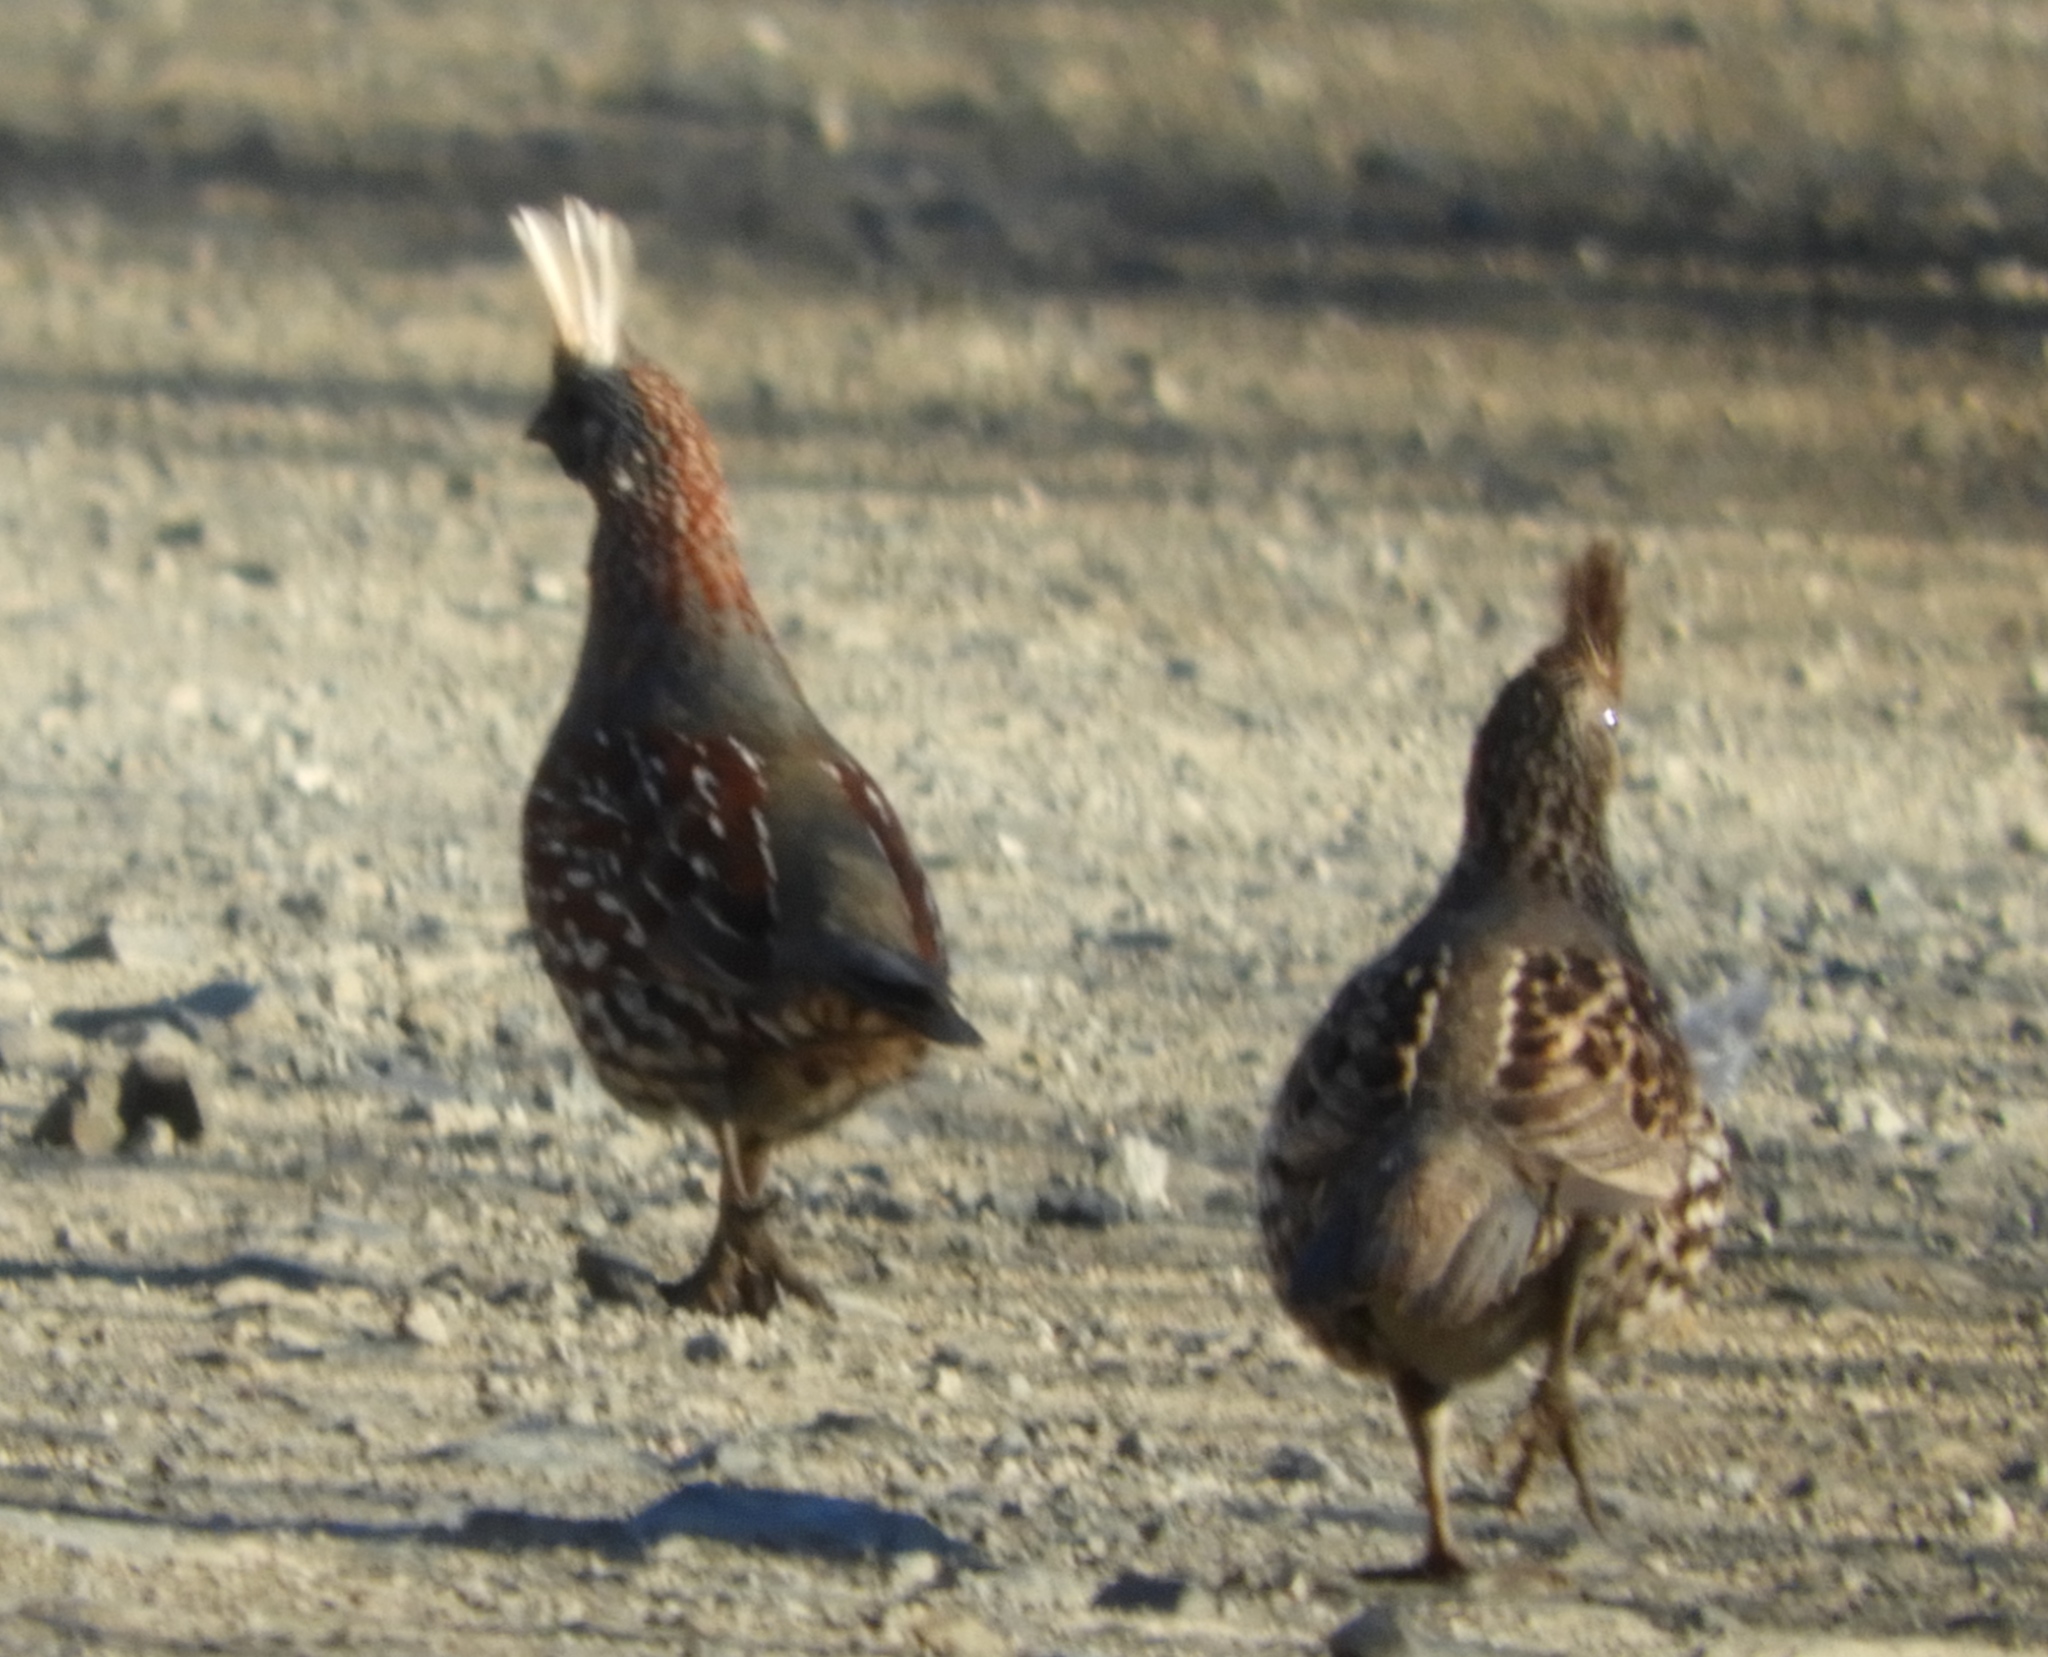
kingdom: Animalia
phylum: Chordata
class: Aves
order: Galliformes
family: Odontophoridae
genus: Callipepla
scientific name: Callipepla douglasii
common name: Elegant quail
